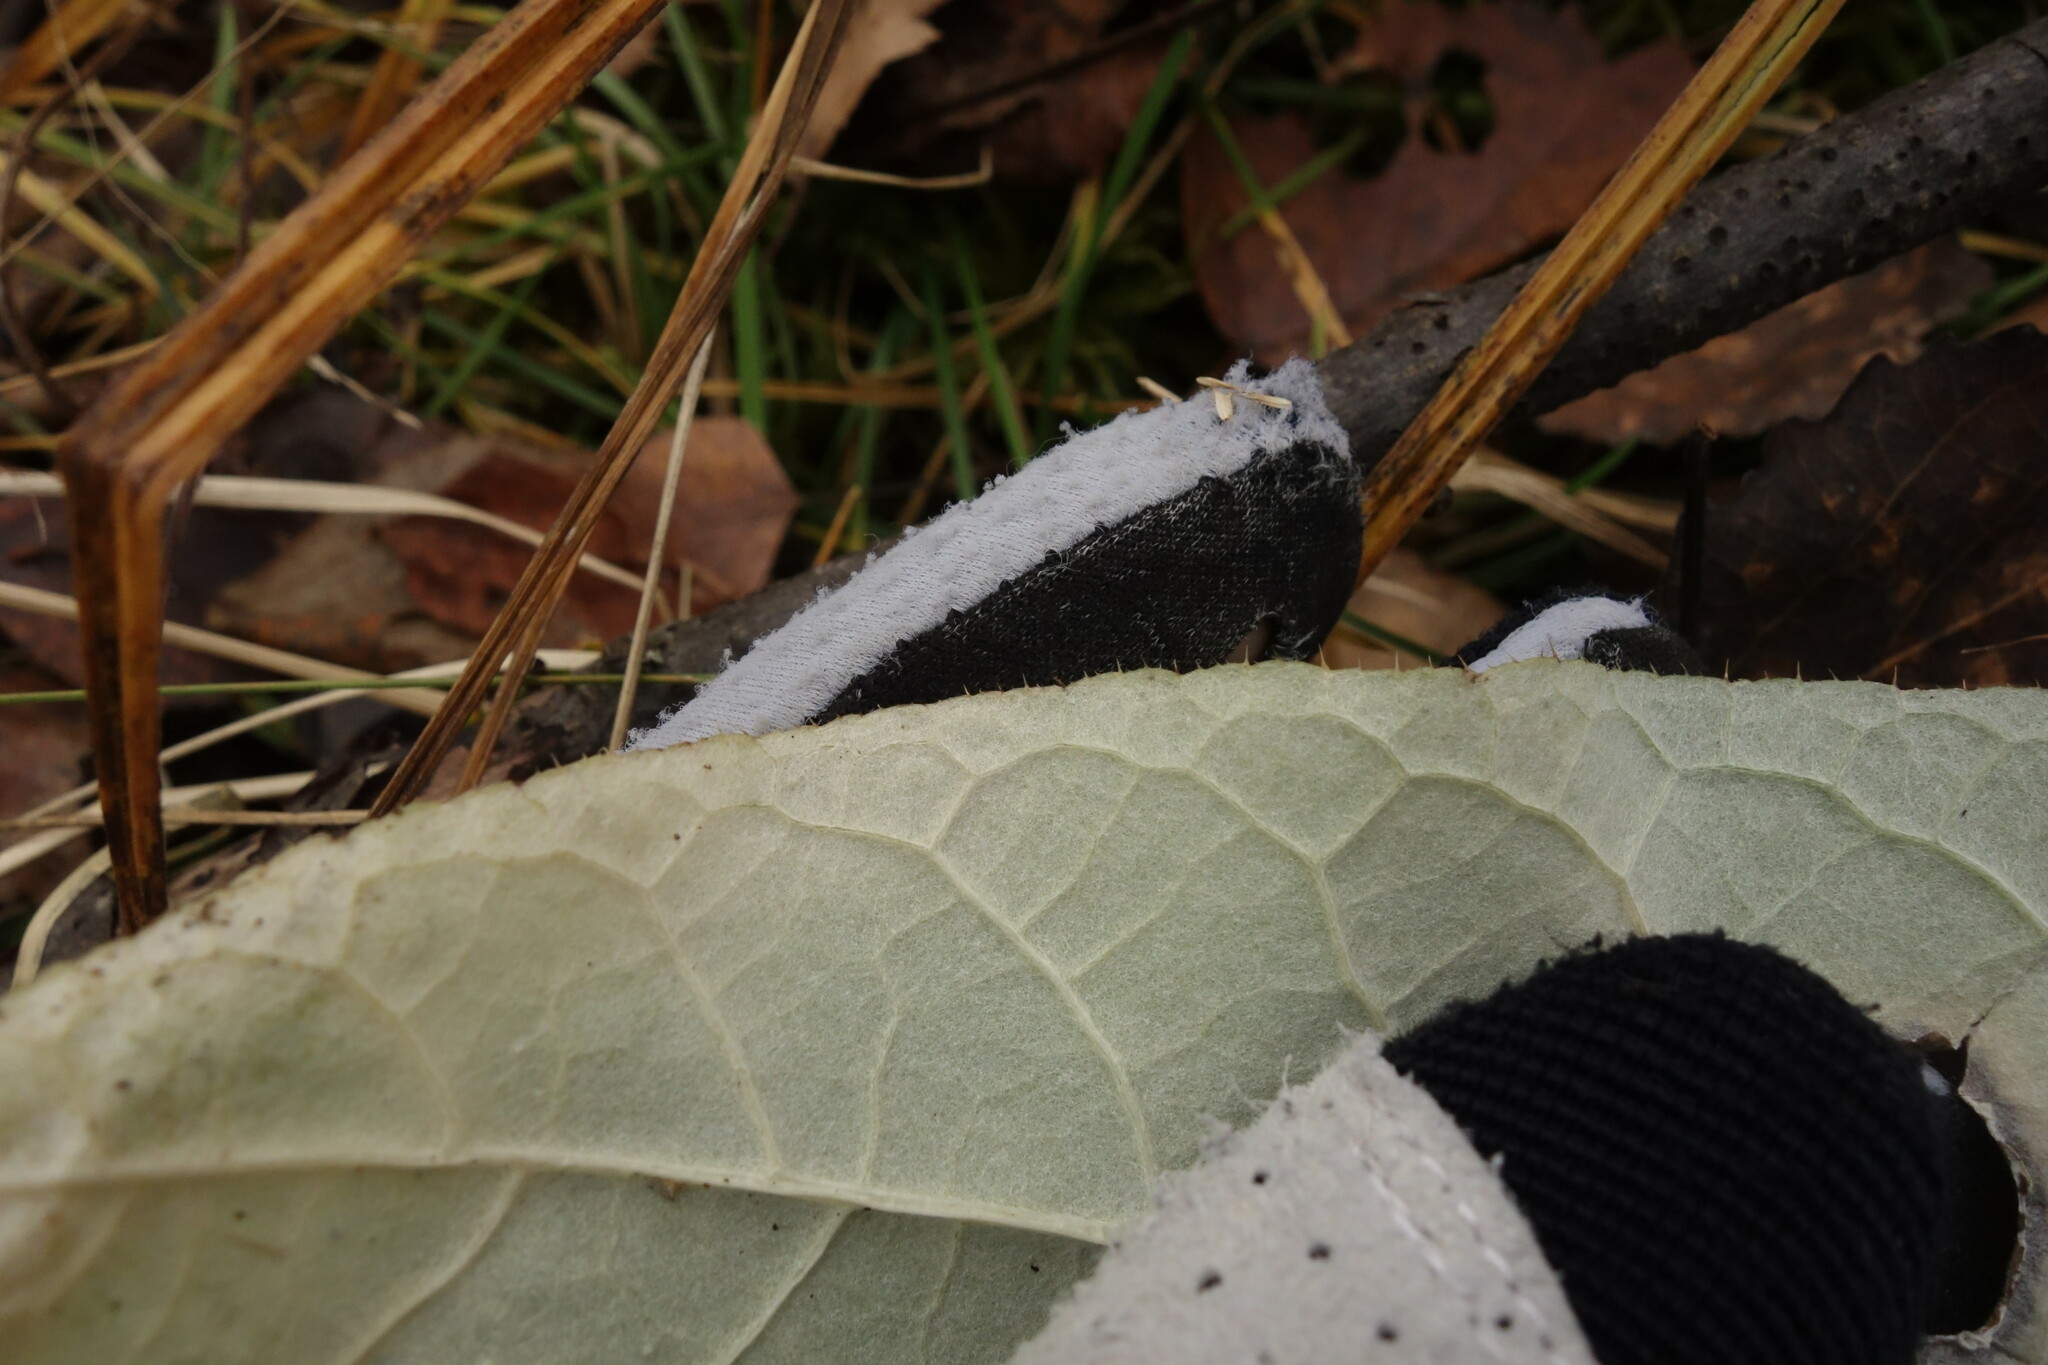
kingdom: Plantae
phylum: Tracheophyta
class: Magnoliopsida
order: Asterales
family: Asteraceae
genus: Cirsium
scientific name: Cirsium heterophyllum
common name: Melancholy thistle
